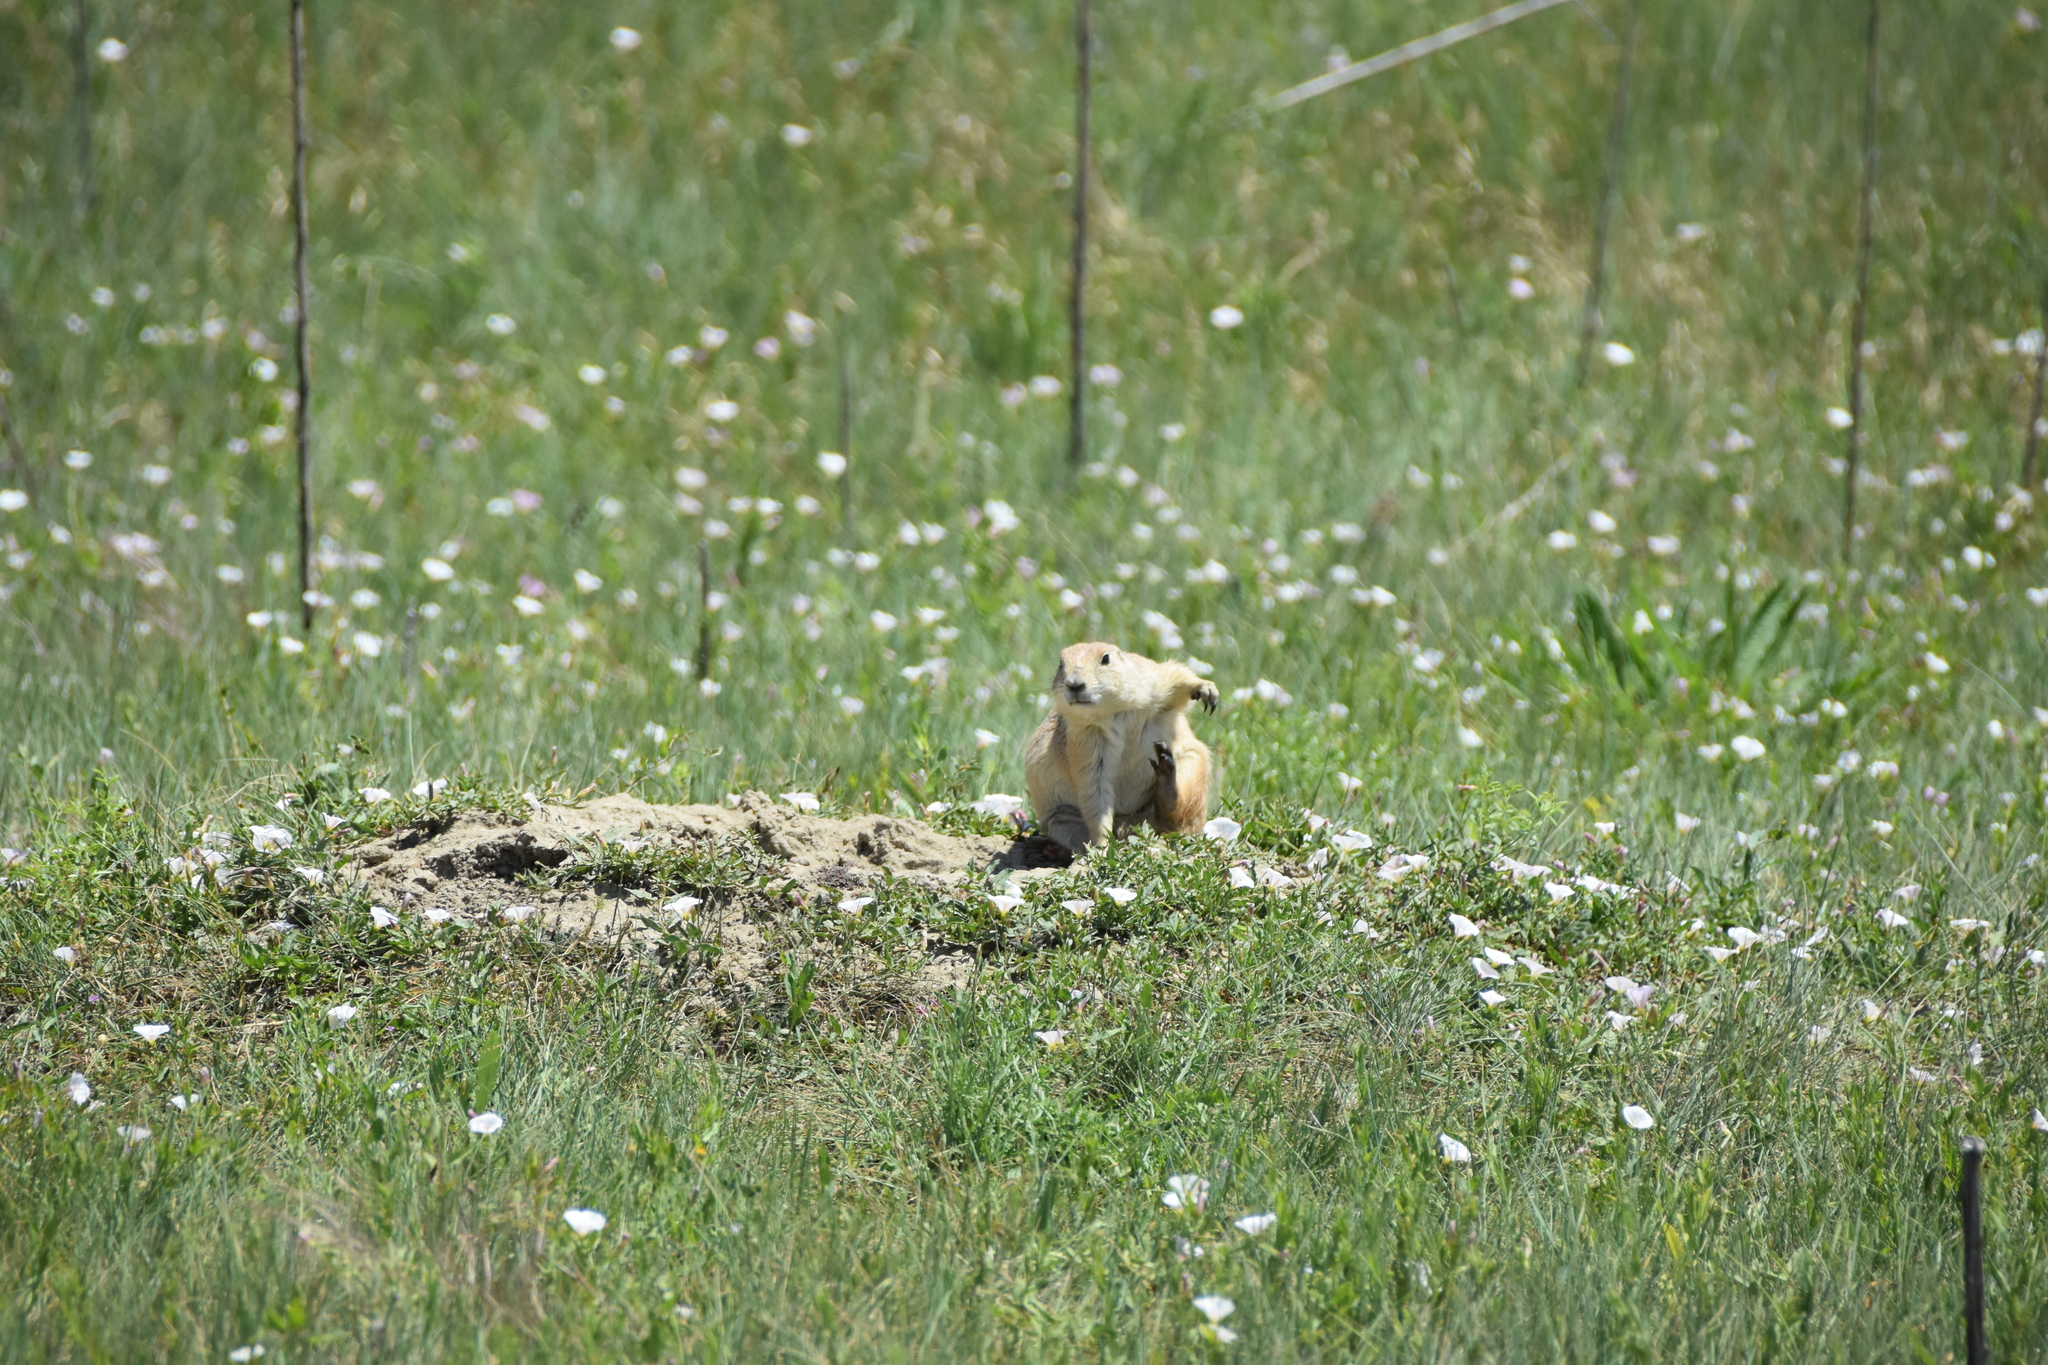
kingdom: Animalia
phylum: Chordata
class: Mammalia
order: Rodentia
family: Sciuridae
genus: Cynomys
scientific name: Cynomys ludovicianus
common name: Black-tailed prairie dog
